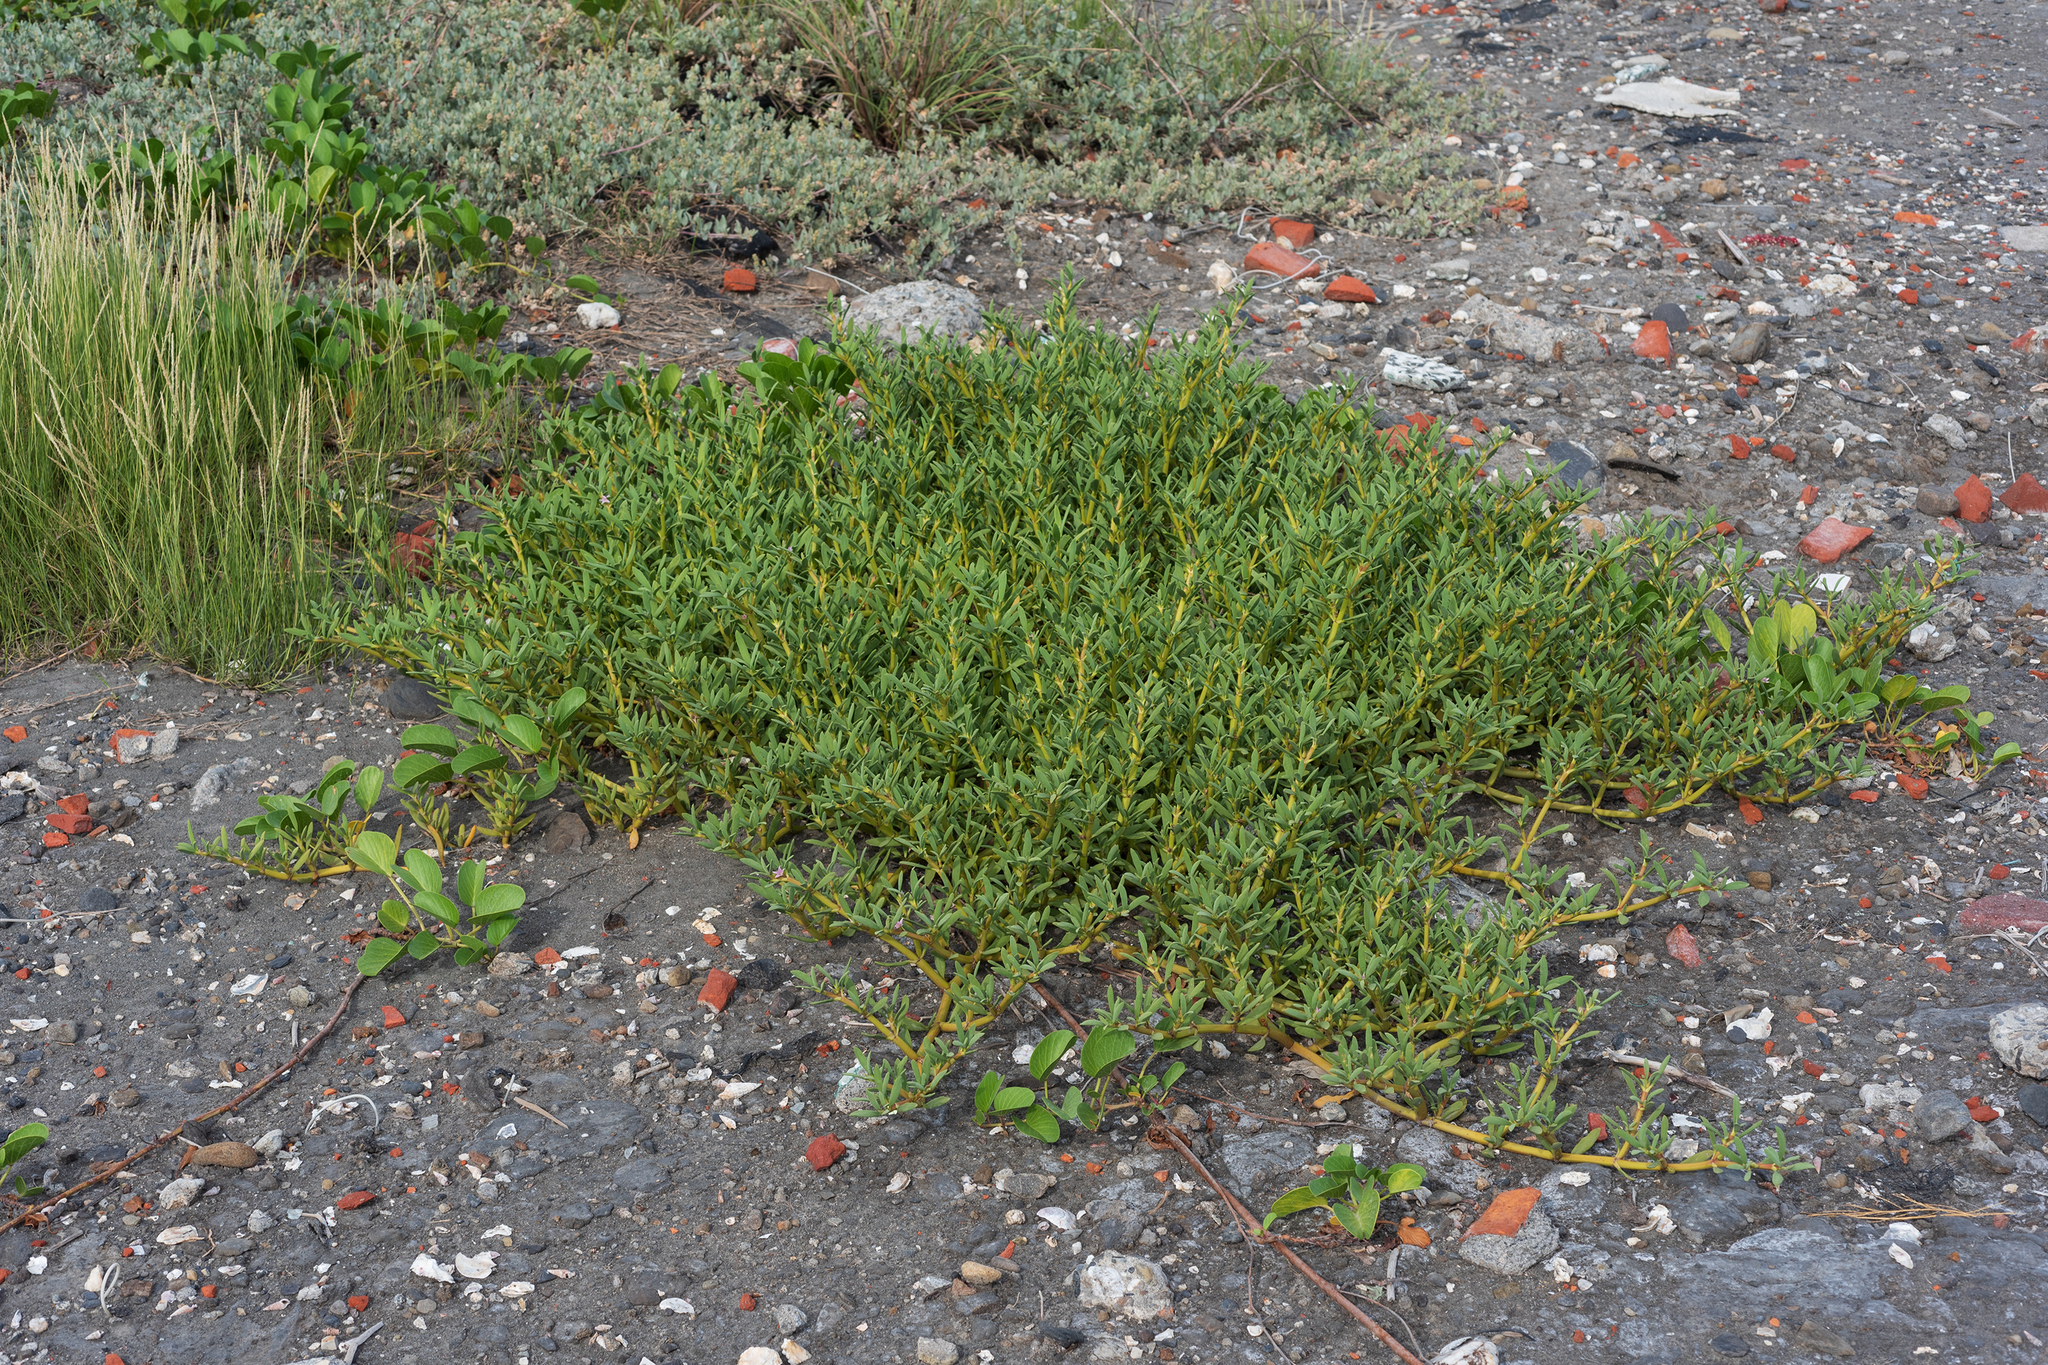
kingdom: Plantae
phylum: Tracheophyta
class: Magnoliopsida
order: Caryophyllales
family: Aizoaceae
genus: Sesuvium
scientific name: Sesuvium portulacastrum
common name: Sea-purslane
